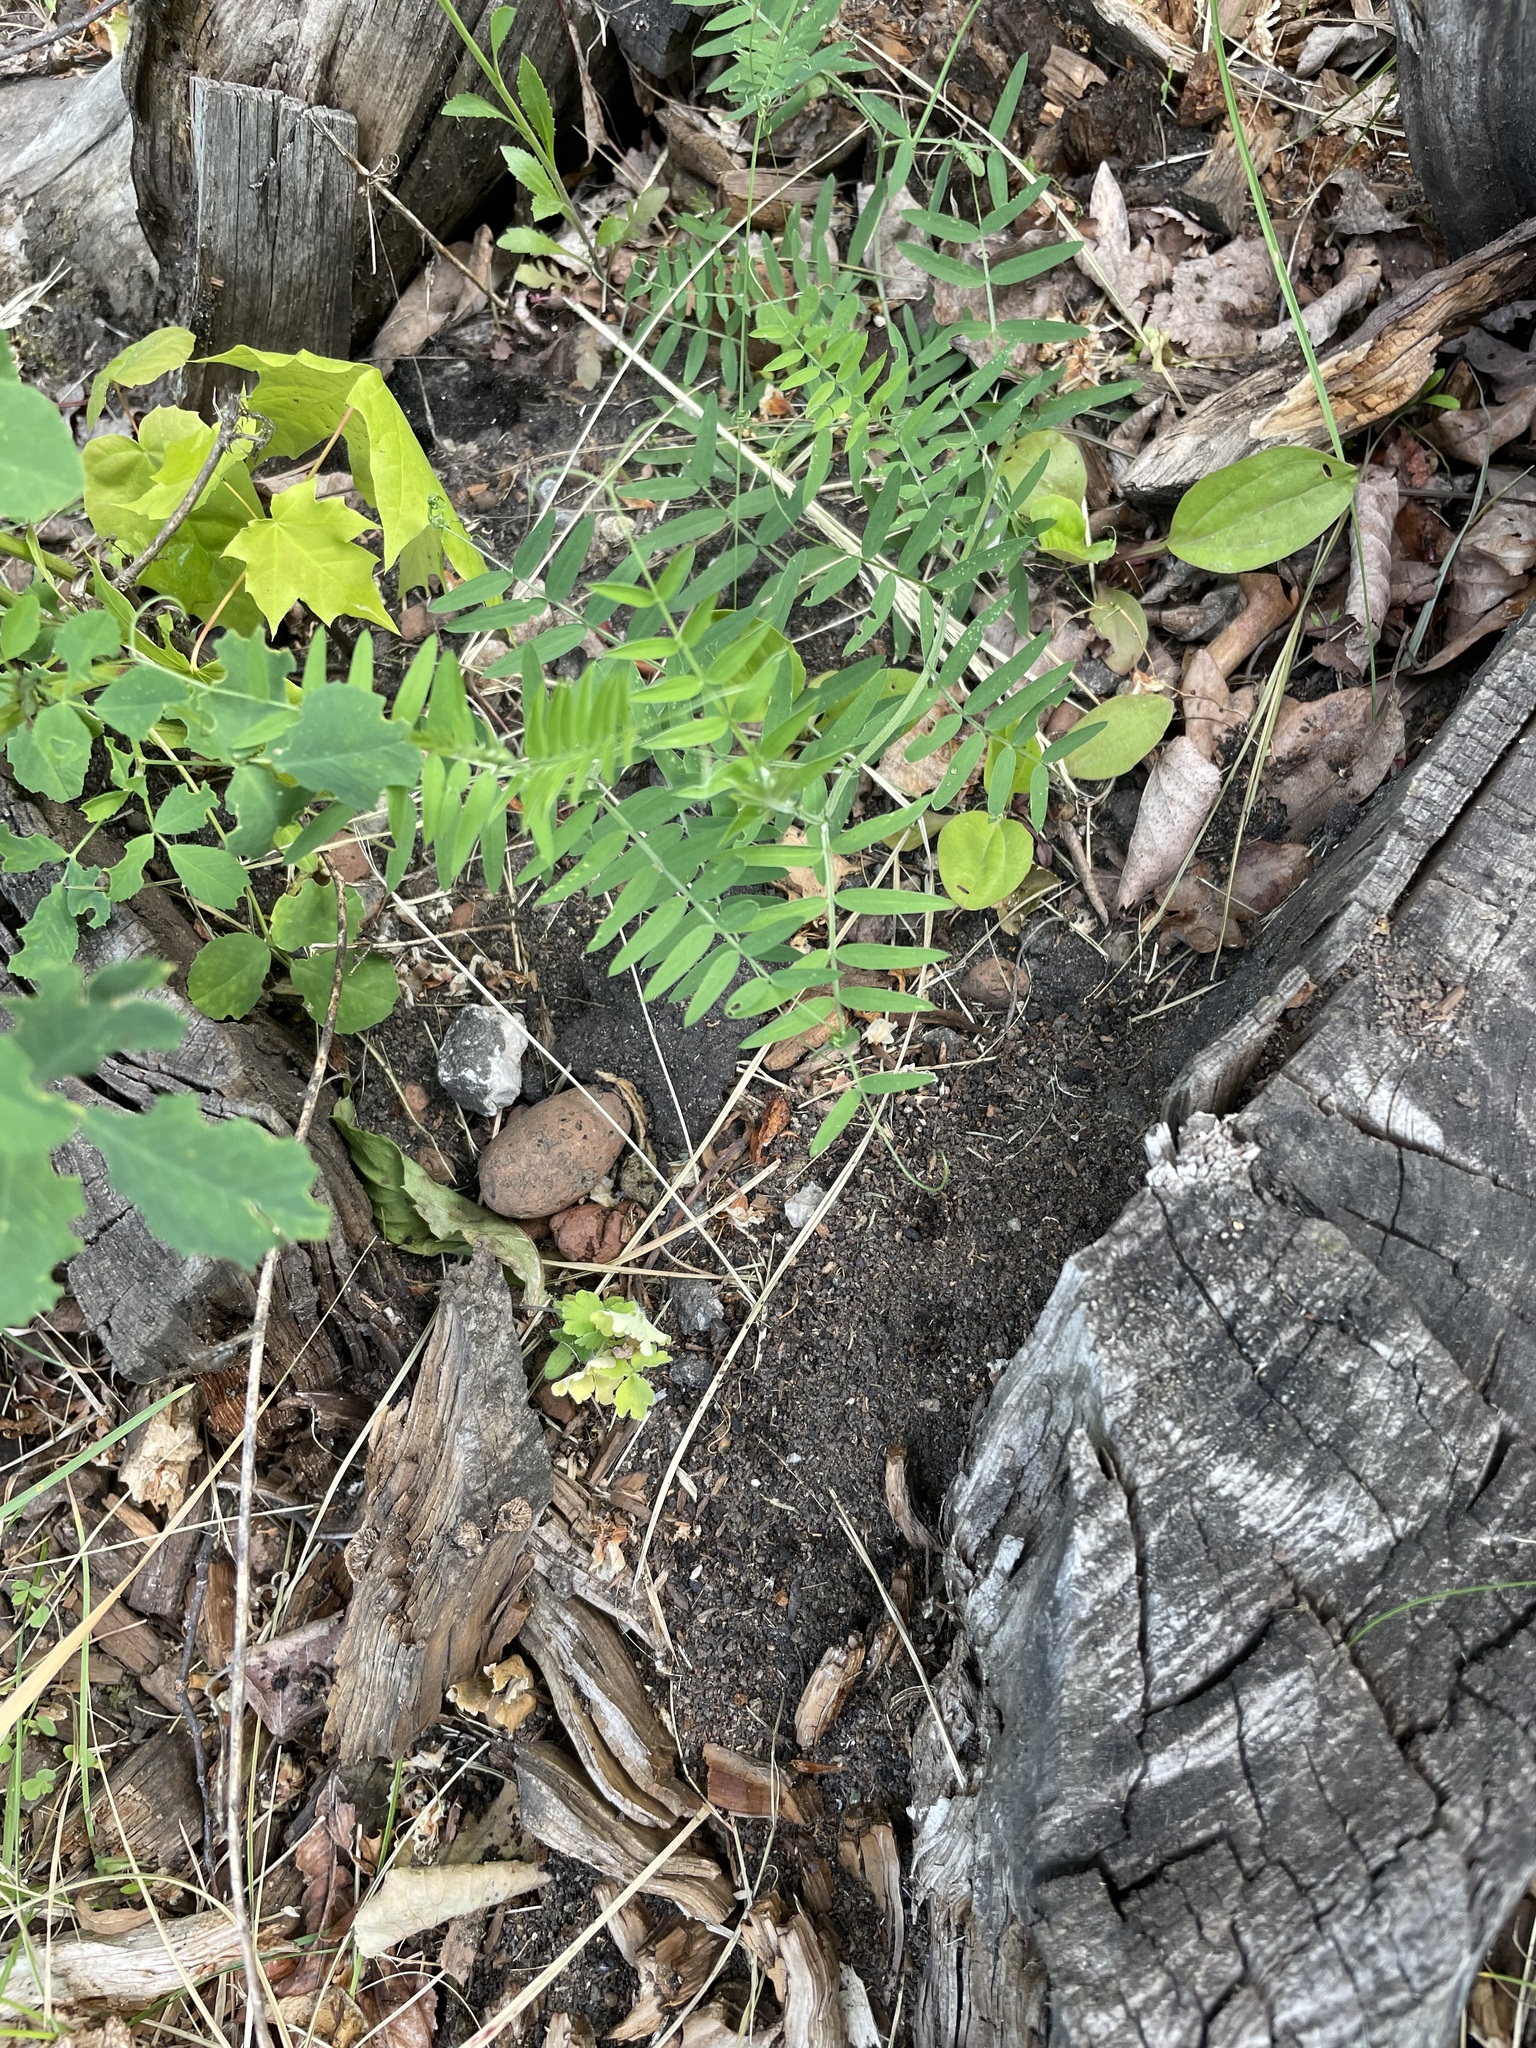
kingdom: Plantae
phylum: Tracheophyta
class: Magnoliopsida
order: Fabales
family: Fabaceae
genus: Vicia
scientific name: Vicia cracca
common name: Bird vetch
